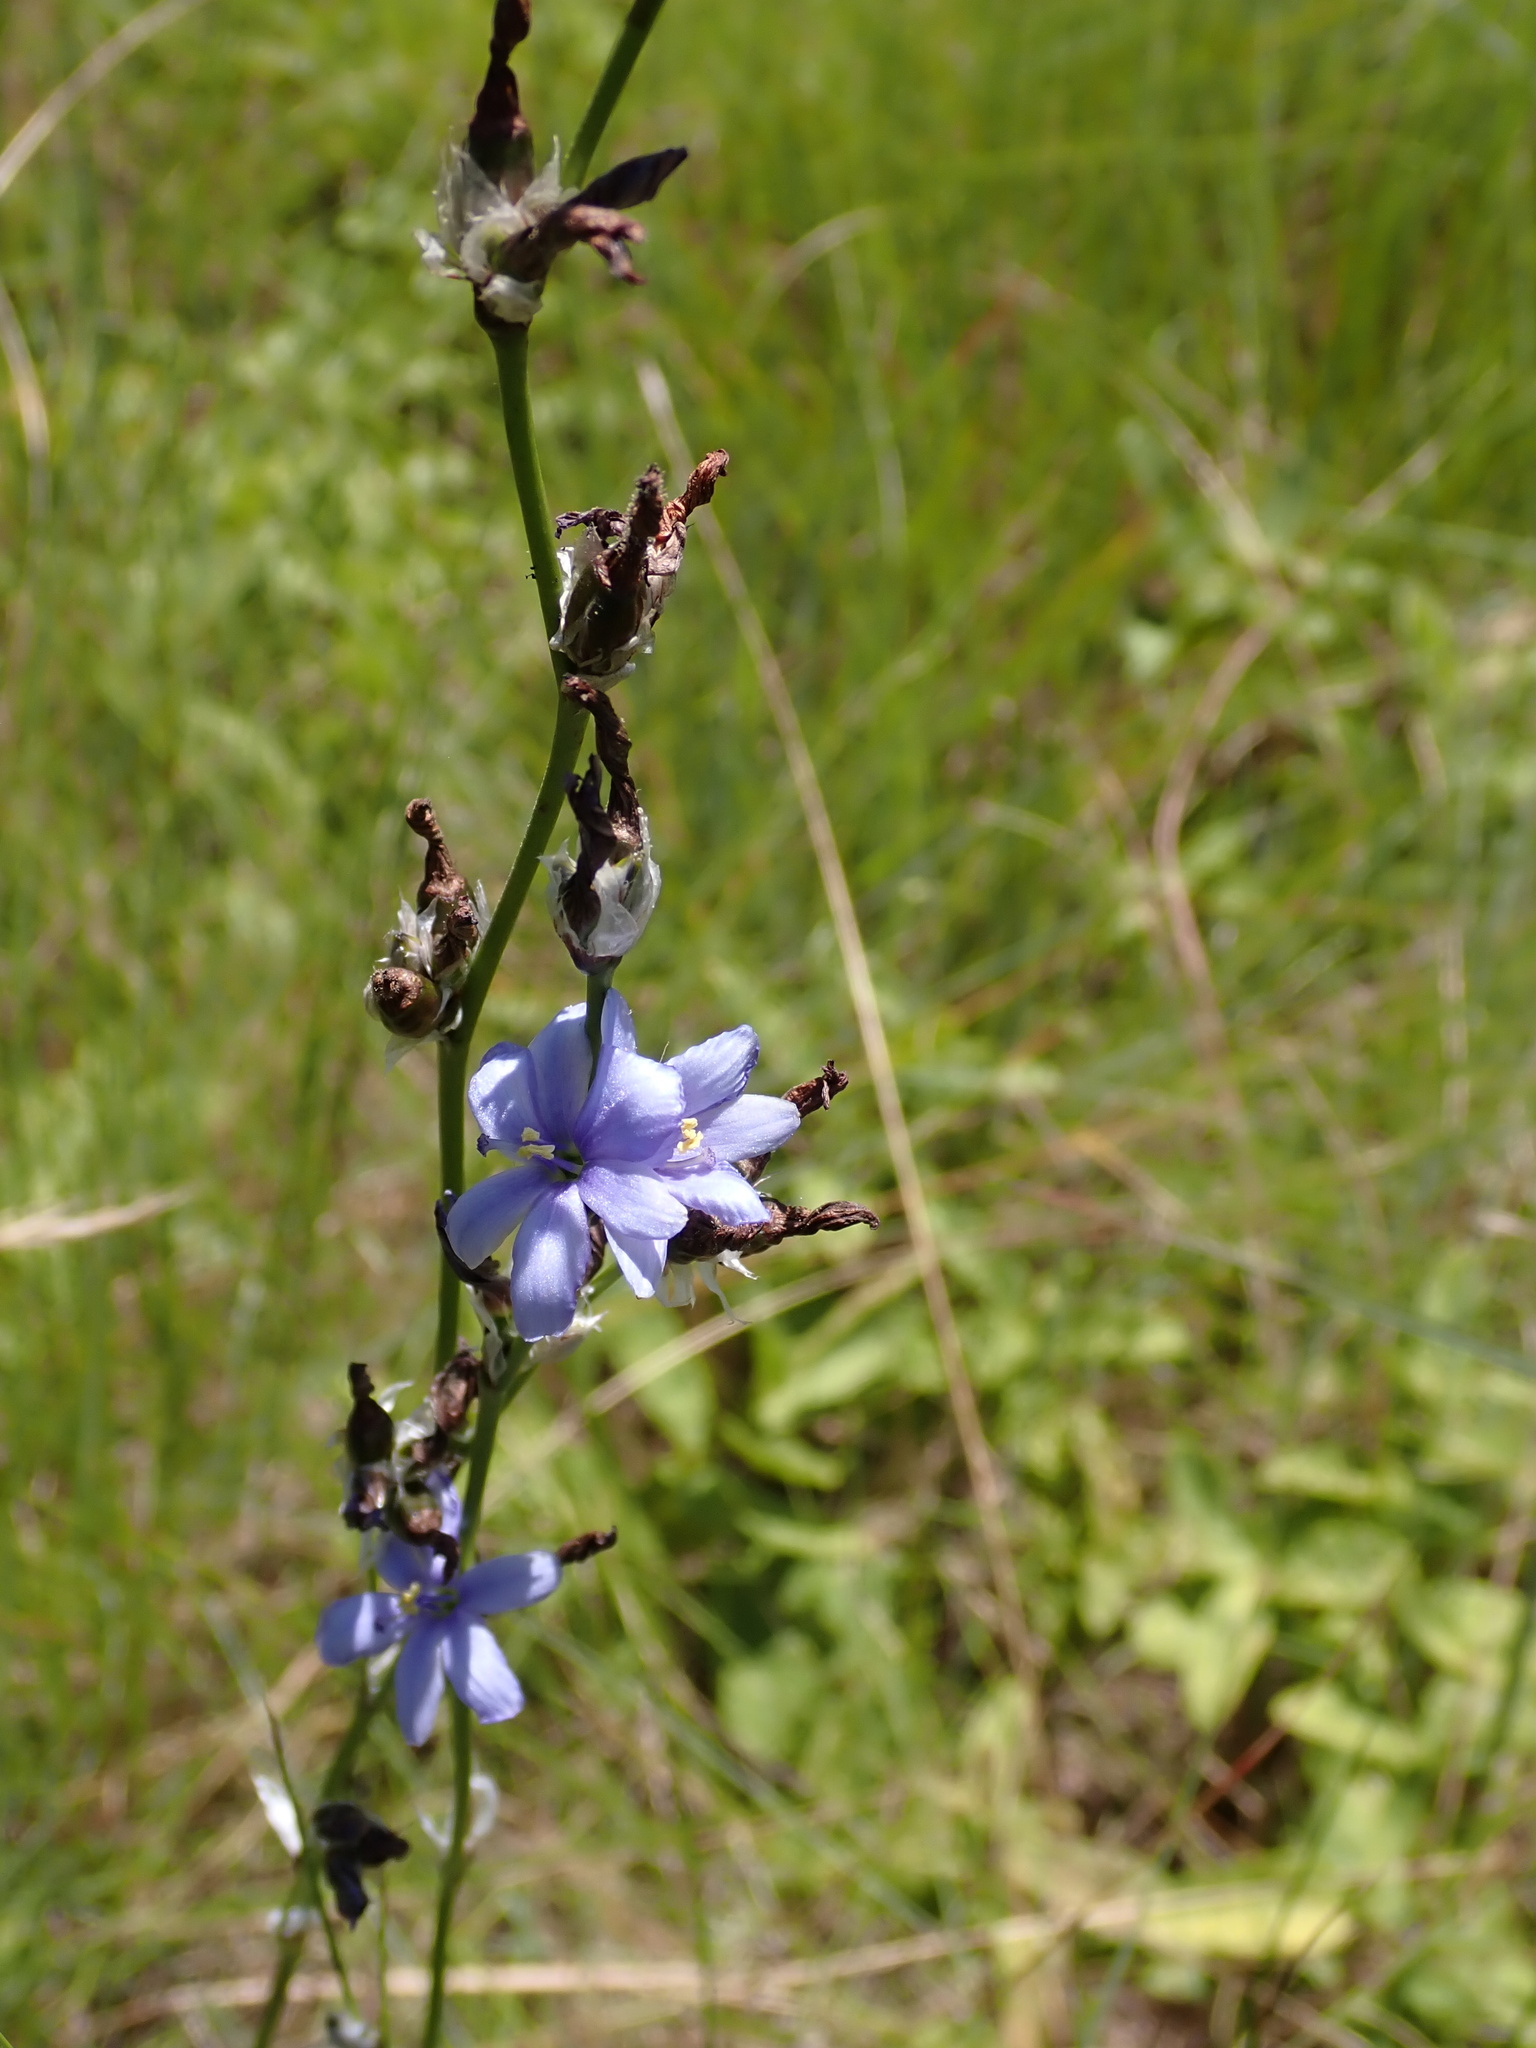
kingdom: Plantae
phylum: Tracheophyta
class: Liliopsida
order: Asparagales
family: Iridaceae
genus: Aristea
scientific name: Aristea torulosa
